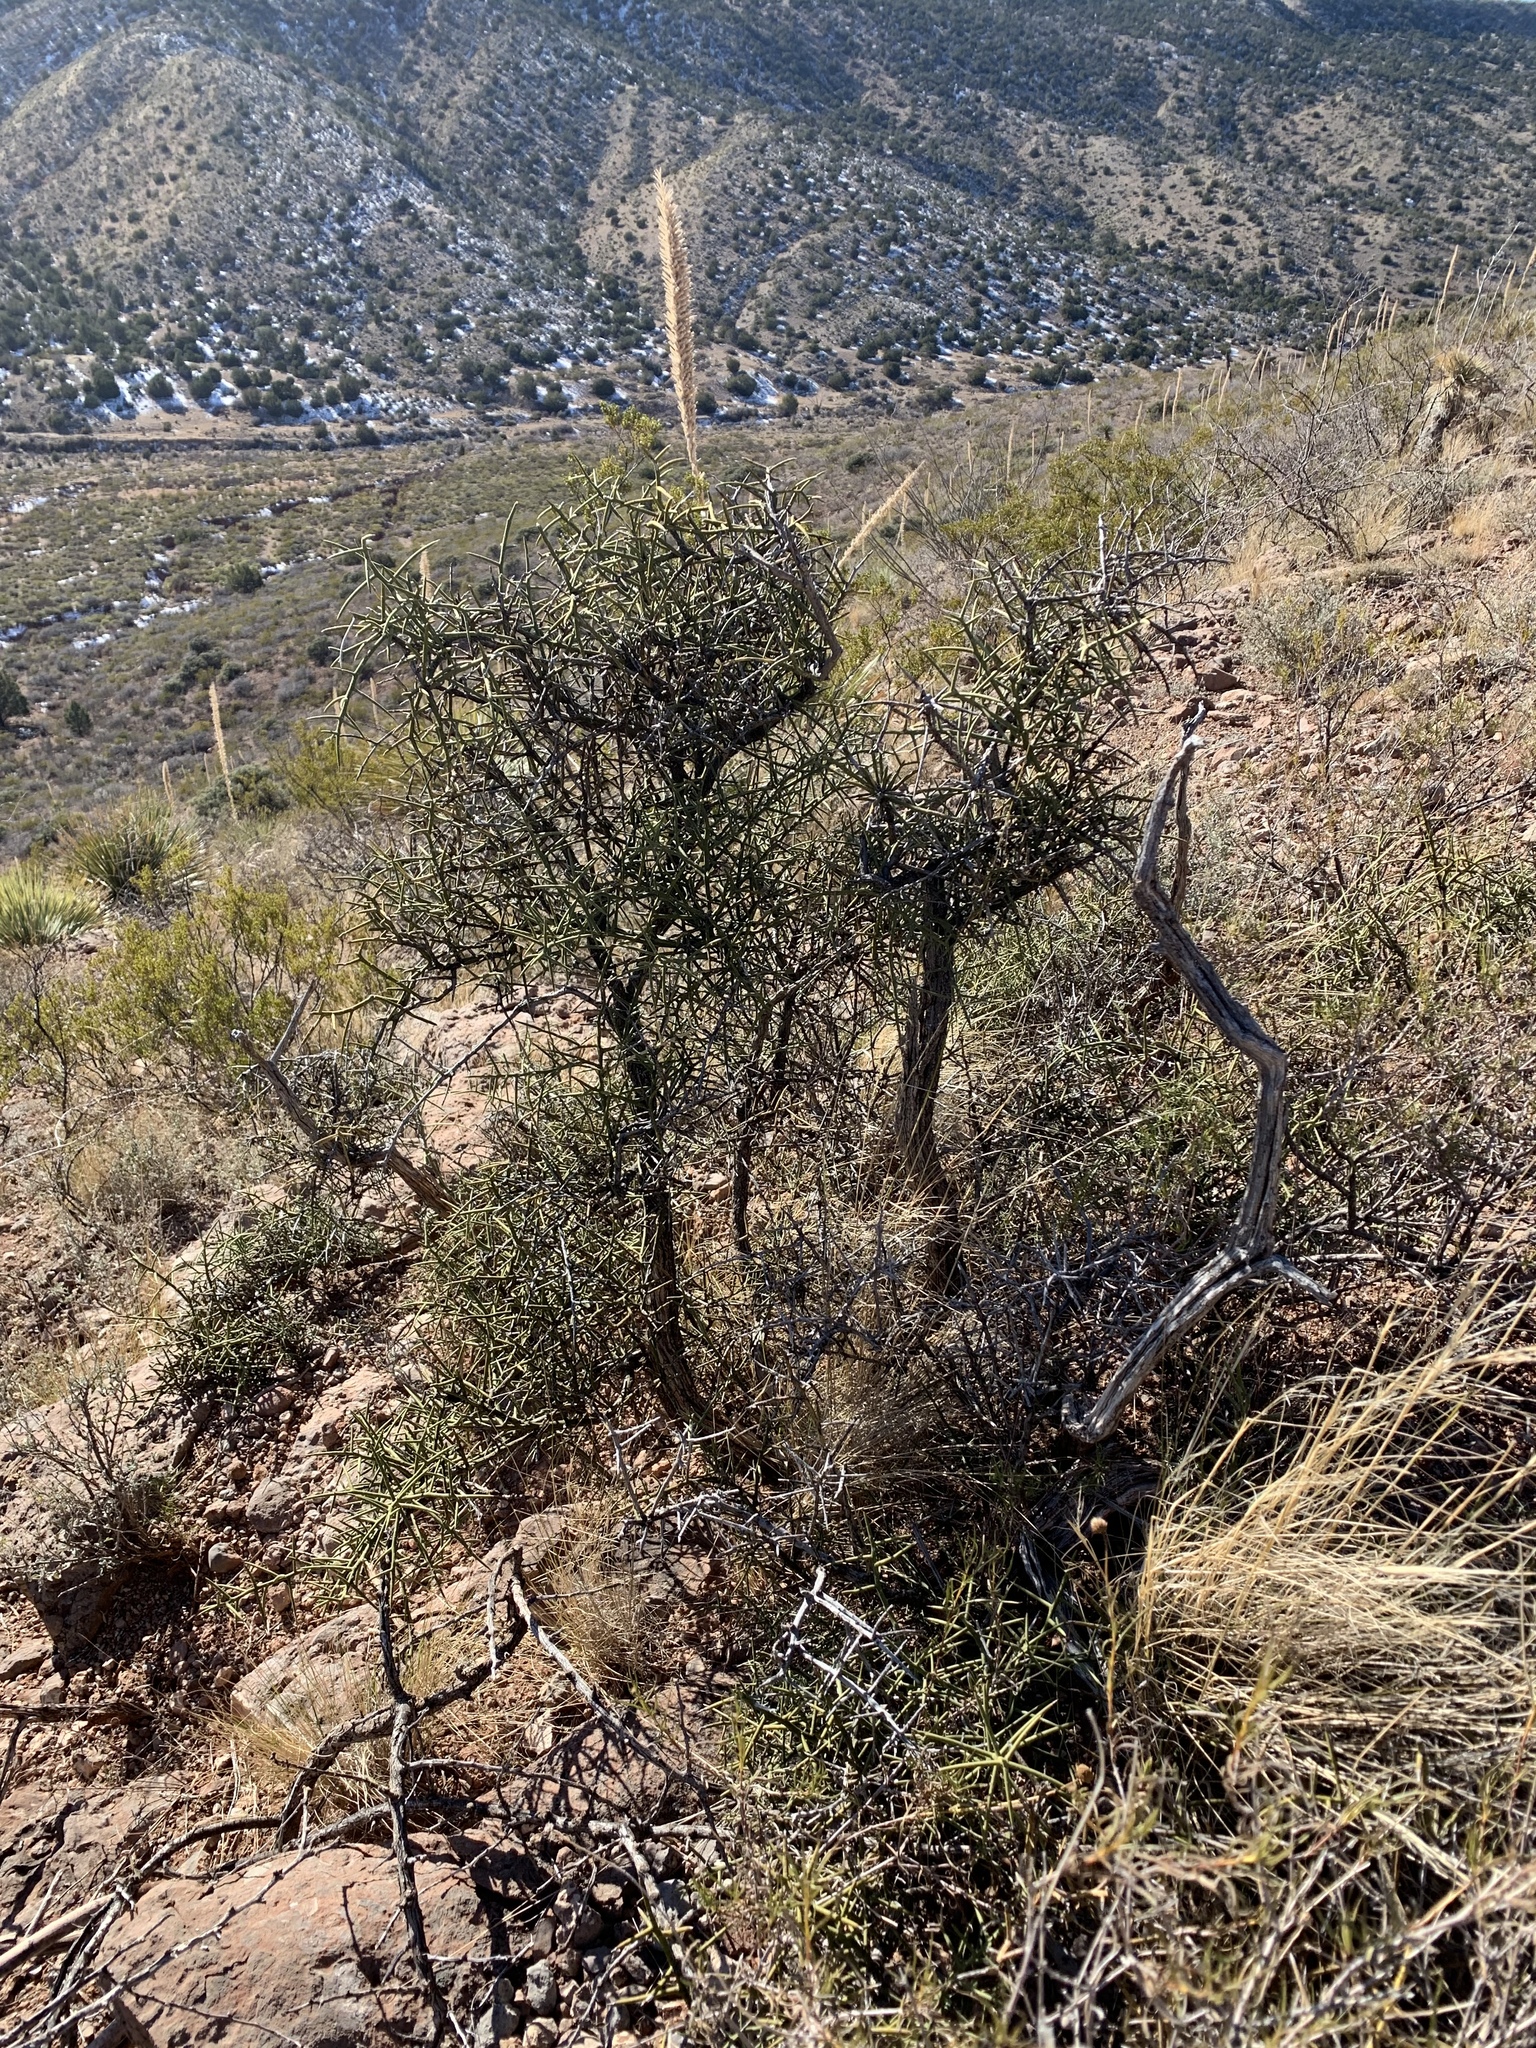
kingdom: Plantae
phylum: Tracheophyta
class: Magnoliopsida
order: Brassicales
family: Koeberliniaceae
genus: Koeberlinia
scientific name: Koeberlinia spinosa
